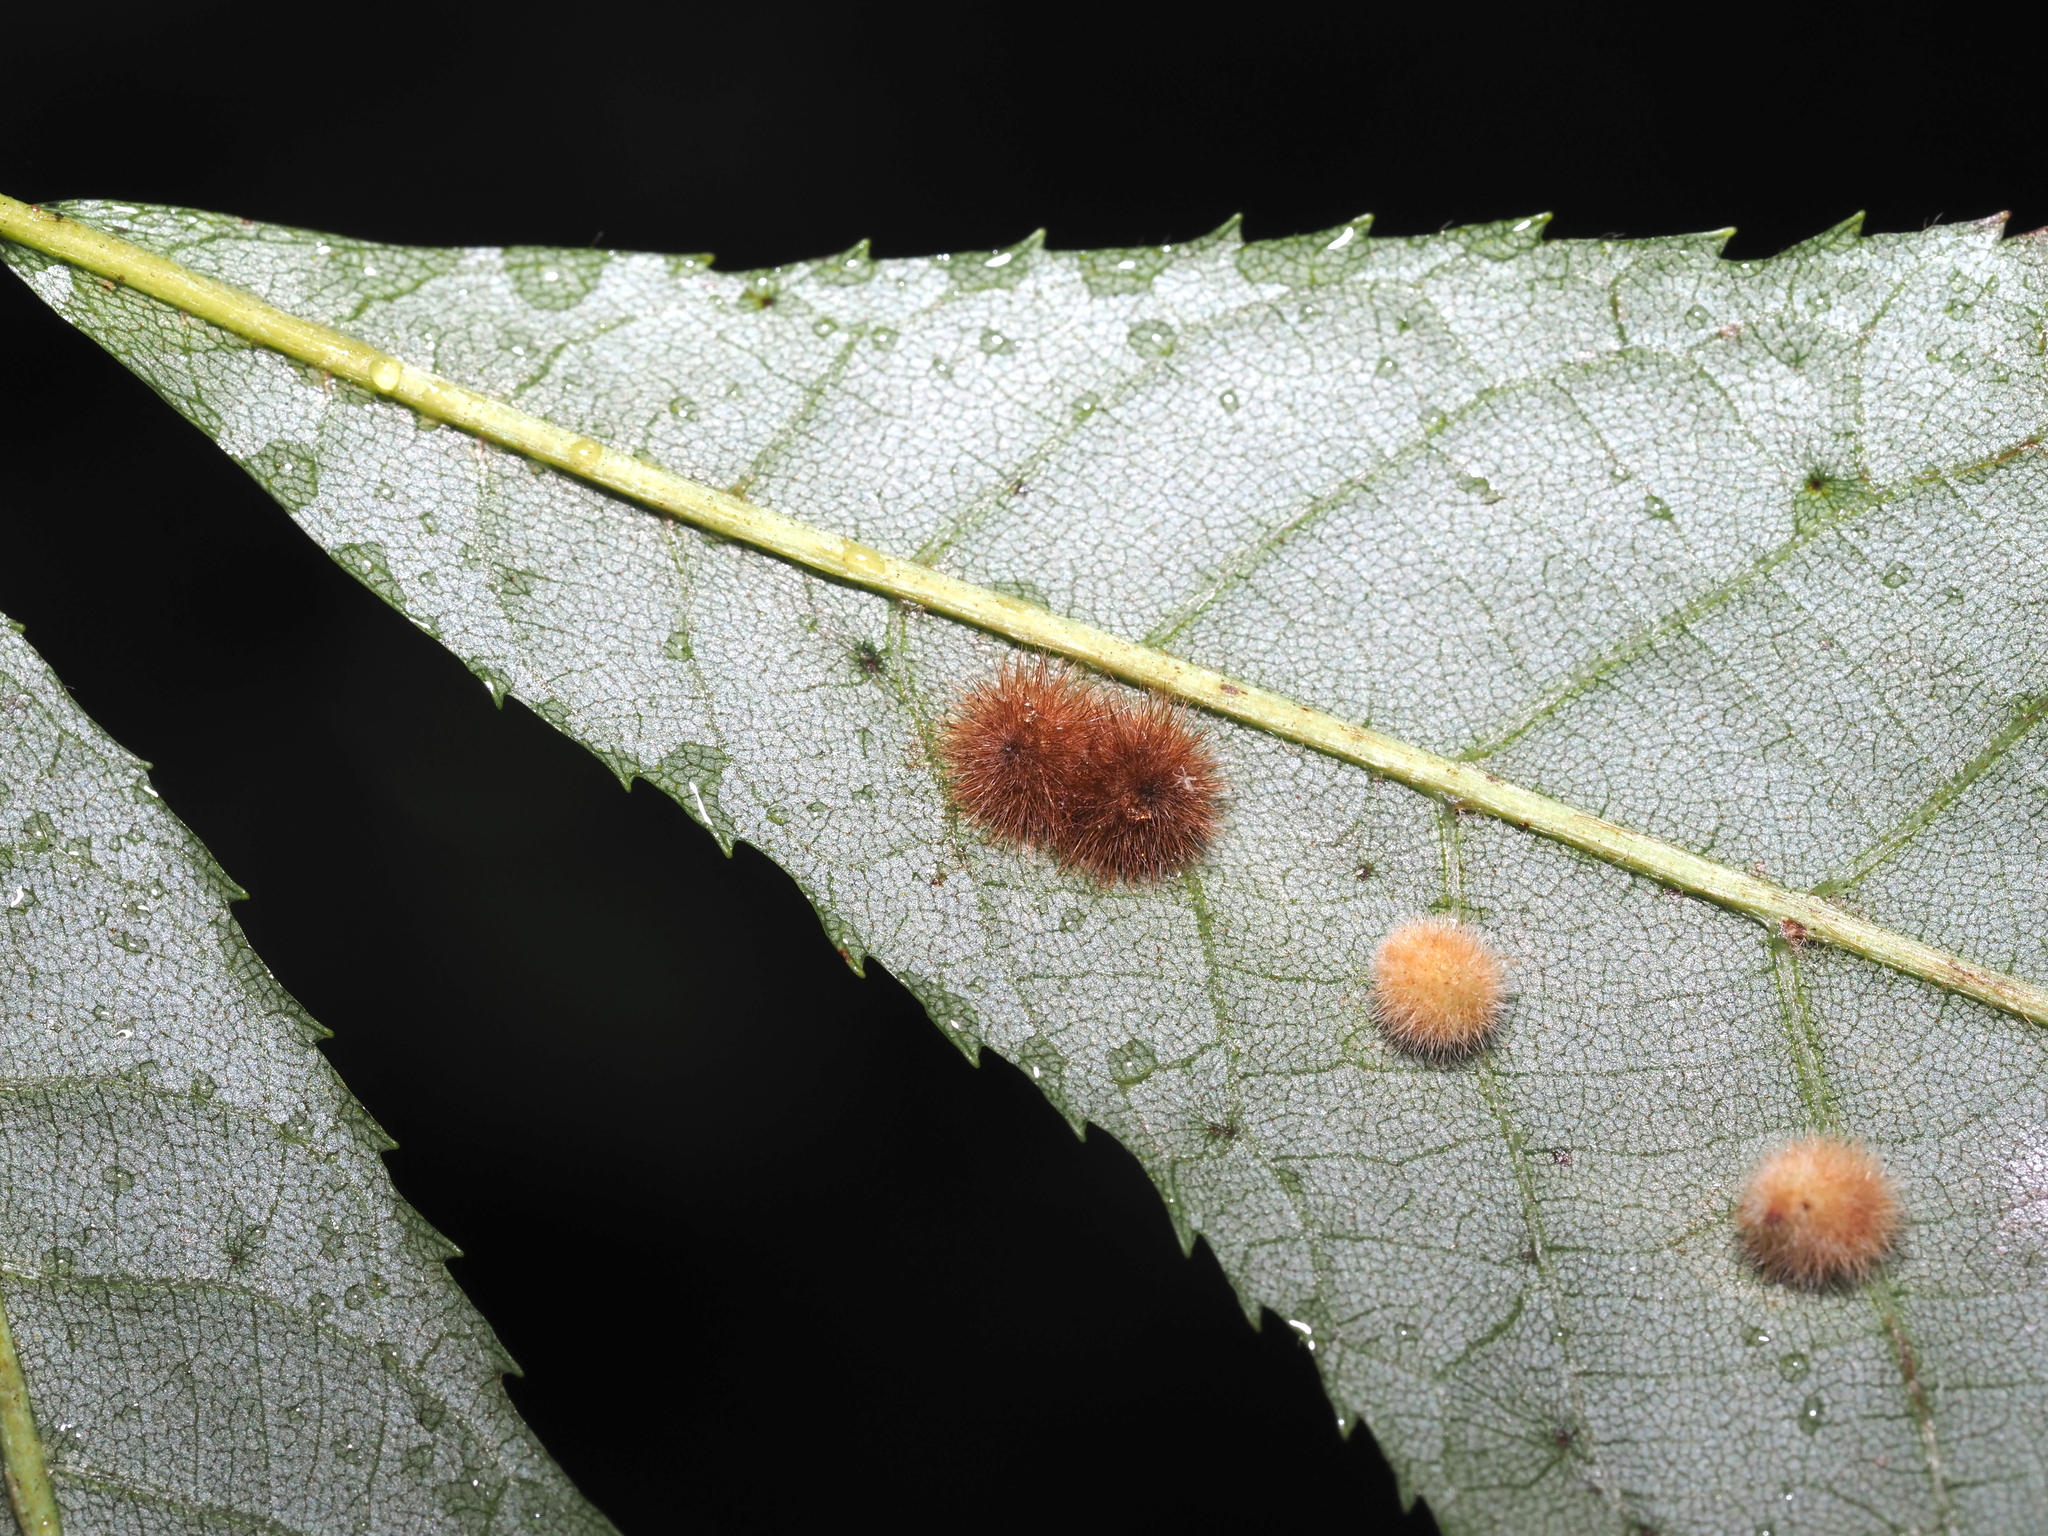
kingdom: Animalia
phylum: Arthropoda
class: Insecta
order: Diptera
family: Cecidomyiidae
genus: Caryomyia
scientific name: Caryomyia purpurea
